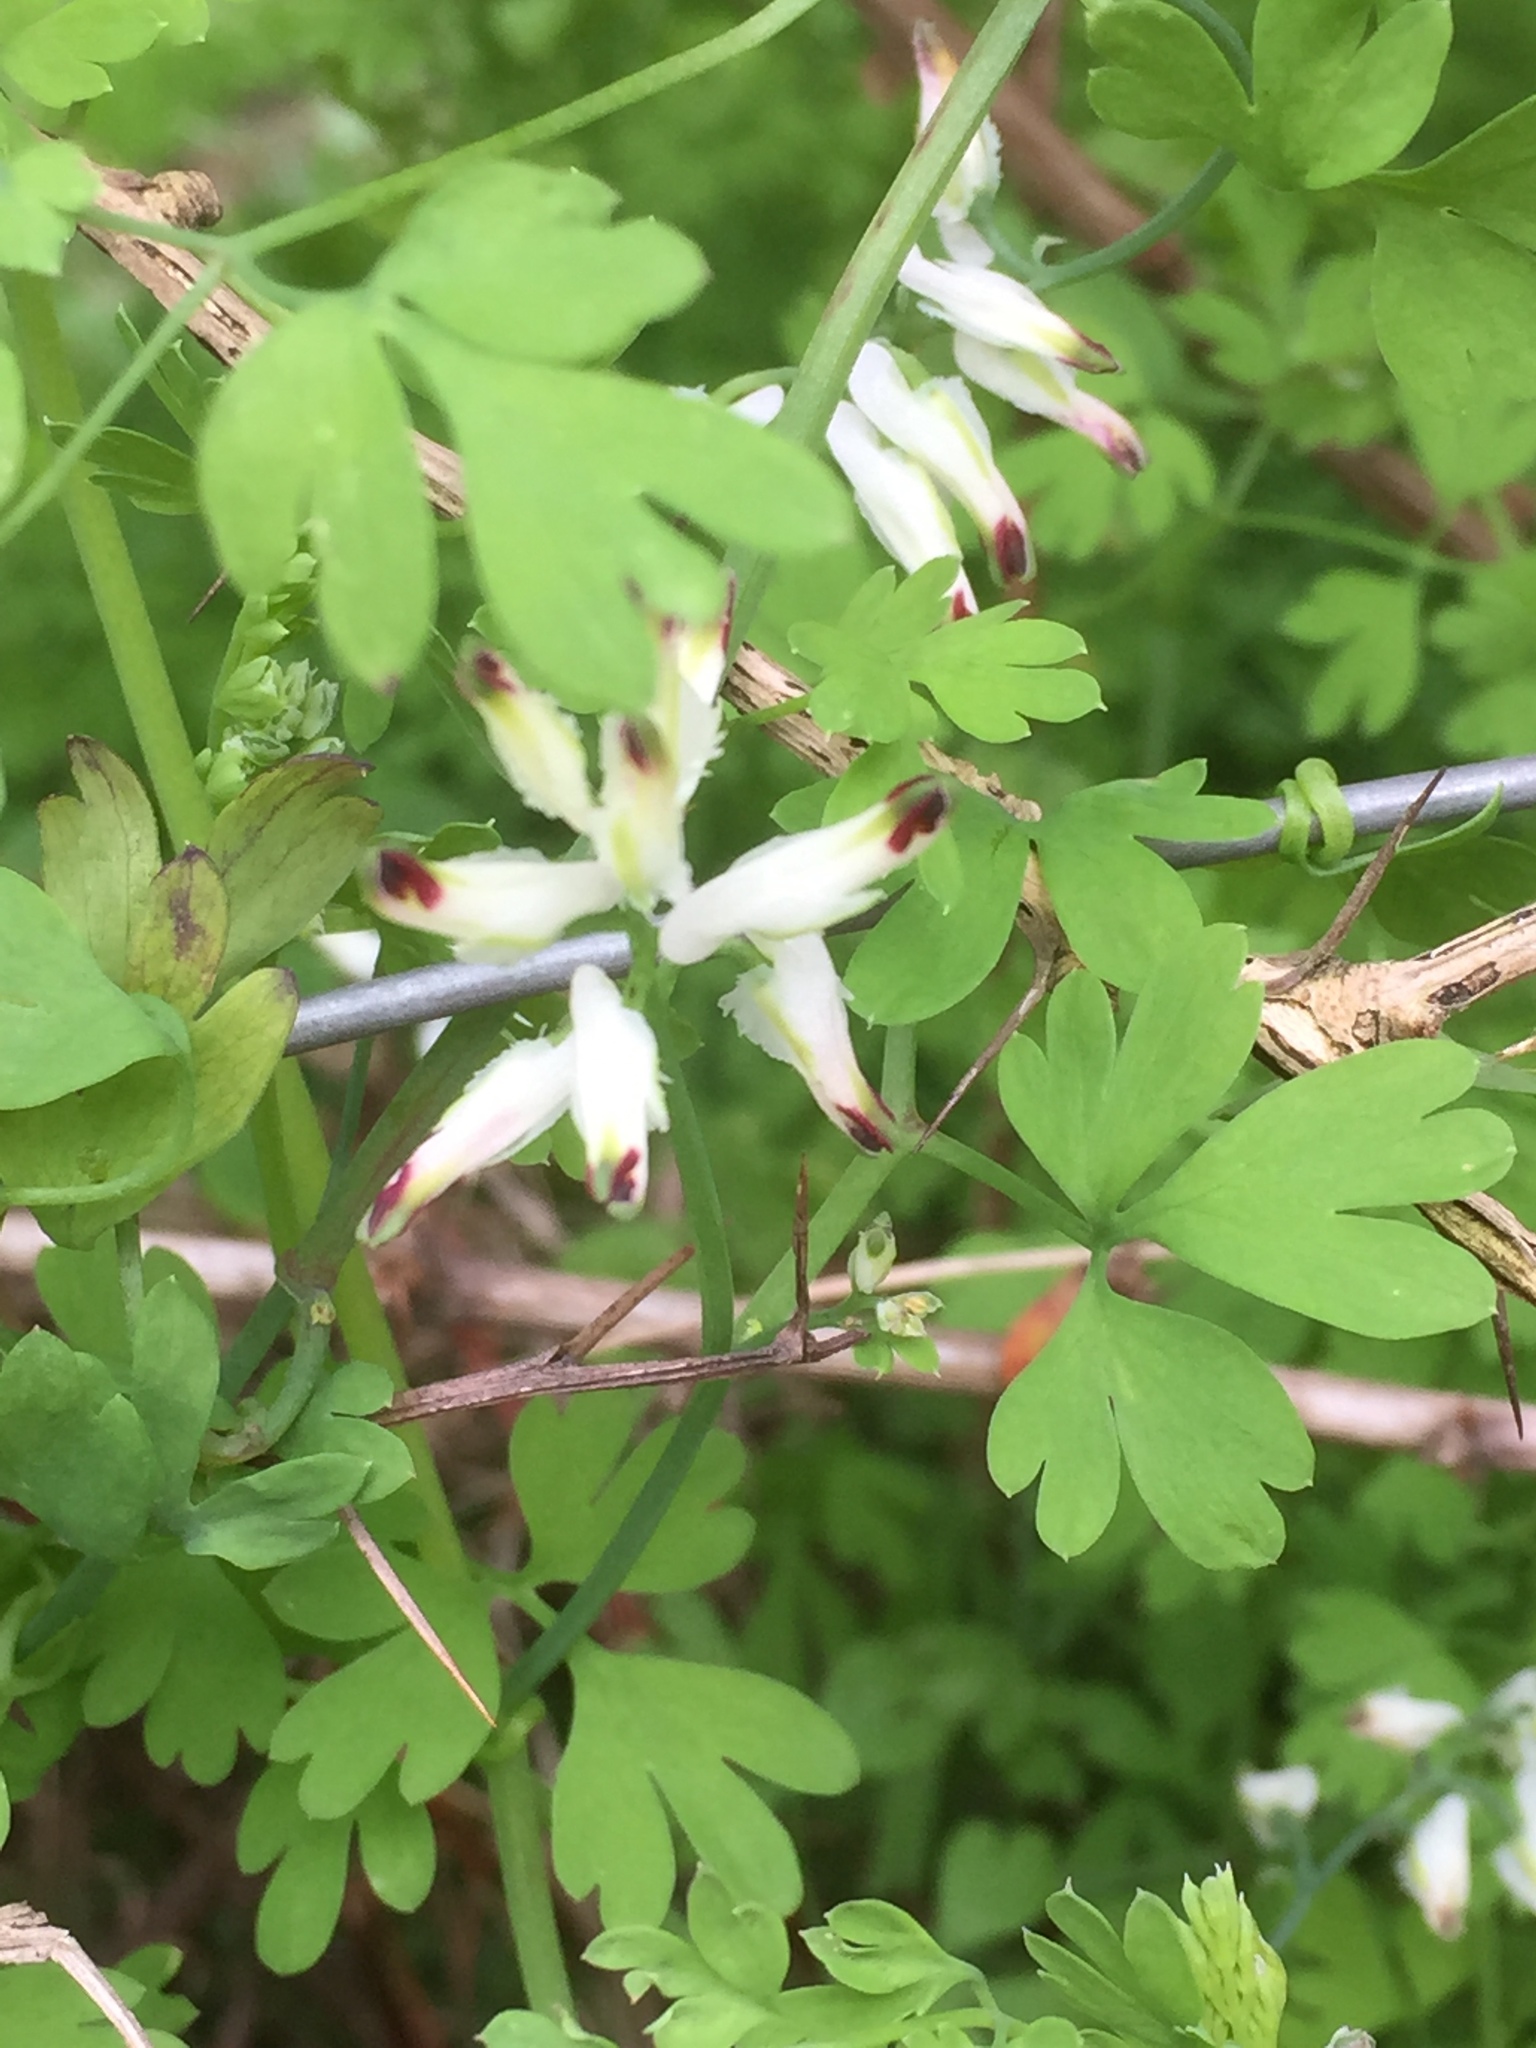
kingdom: Plantae
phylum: Tracheophyta
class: Magnoliopsida
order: Ranunculales
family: Papaveraceae
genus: Fumaria
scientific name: Fumaria capreolata
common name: White ramping-fumitory
